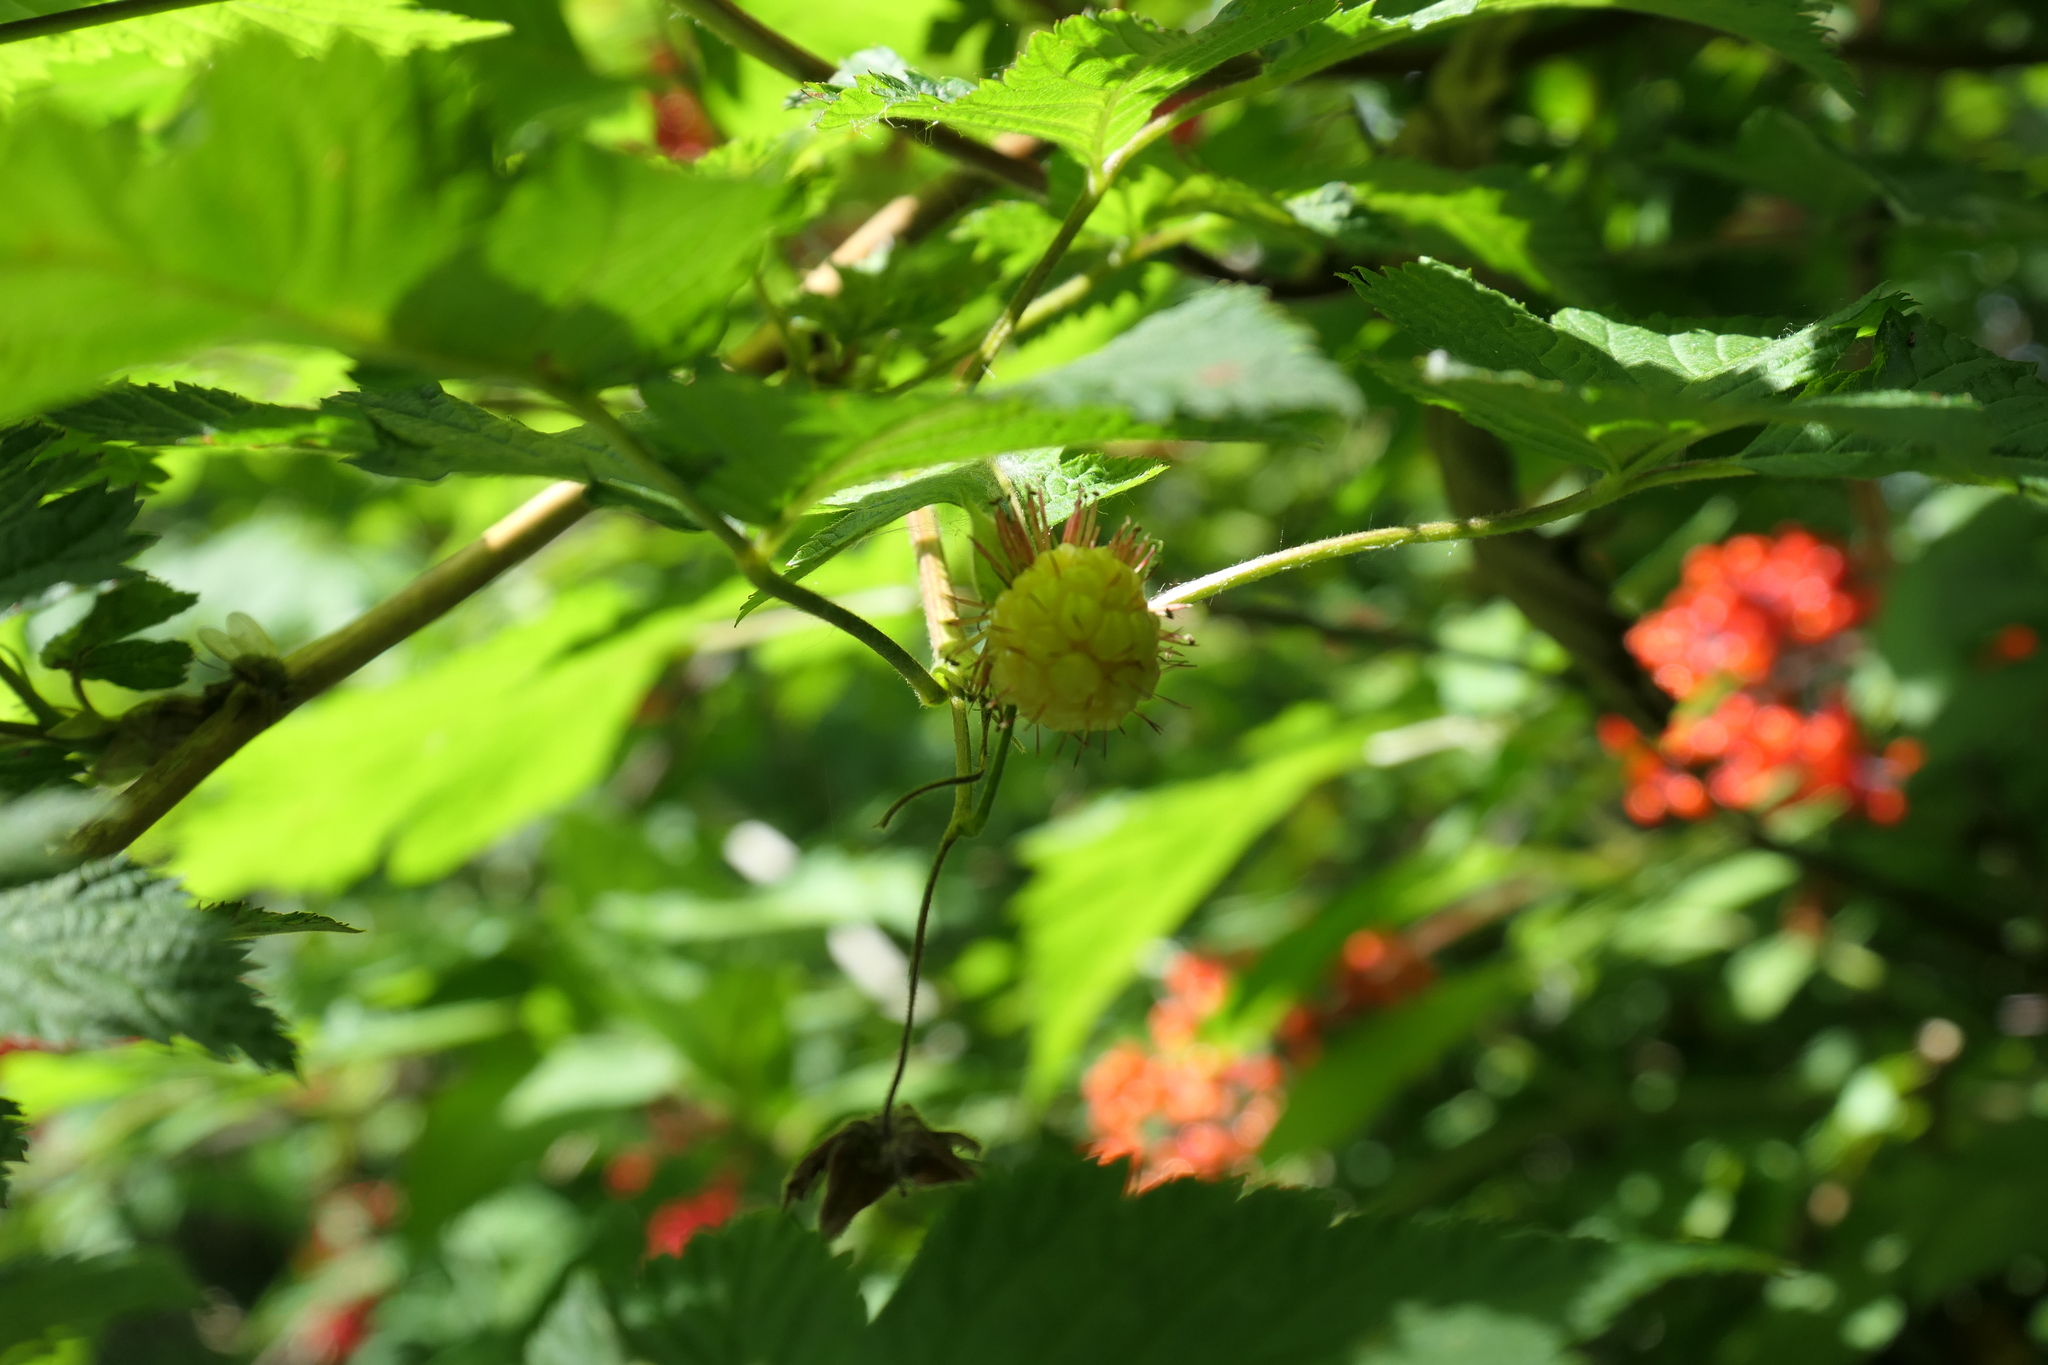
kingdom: Plantae
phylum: Tracheophyta
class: Magnoliopsida
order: Rosales
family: Rosaceae
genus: Rubus
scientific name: Rubus spectabilis
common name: Salmonberry
